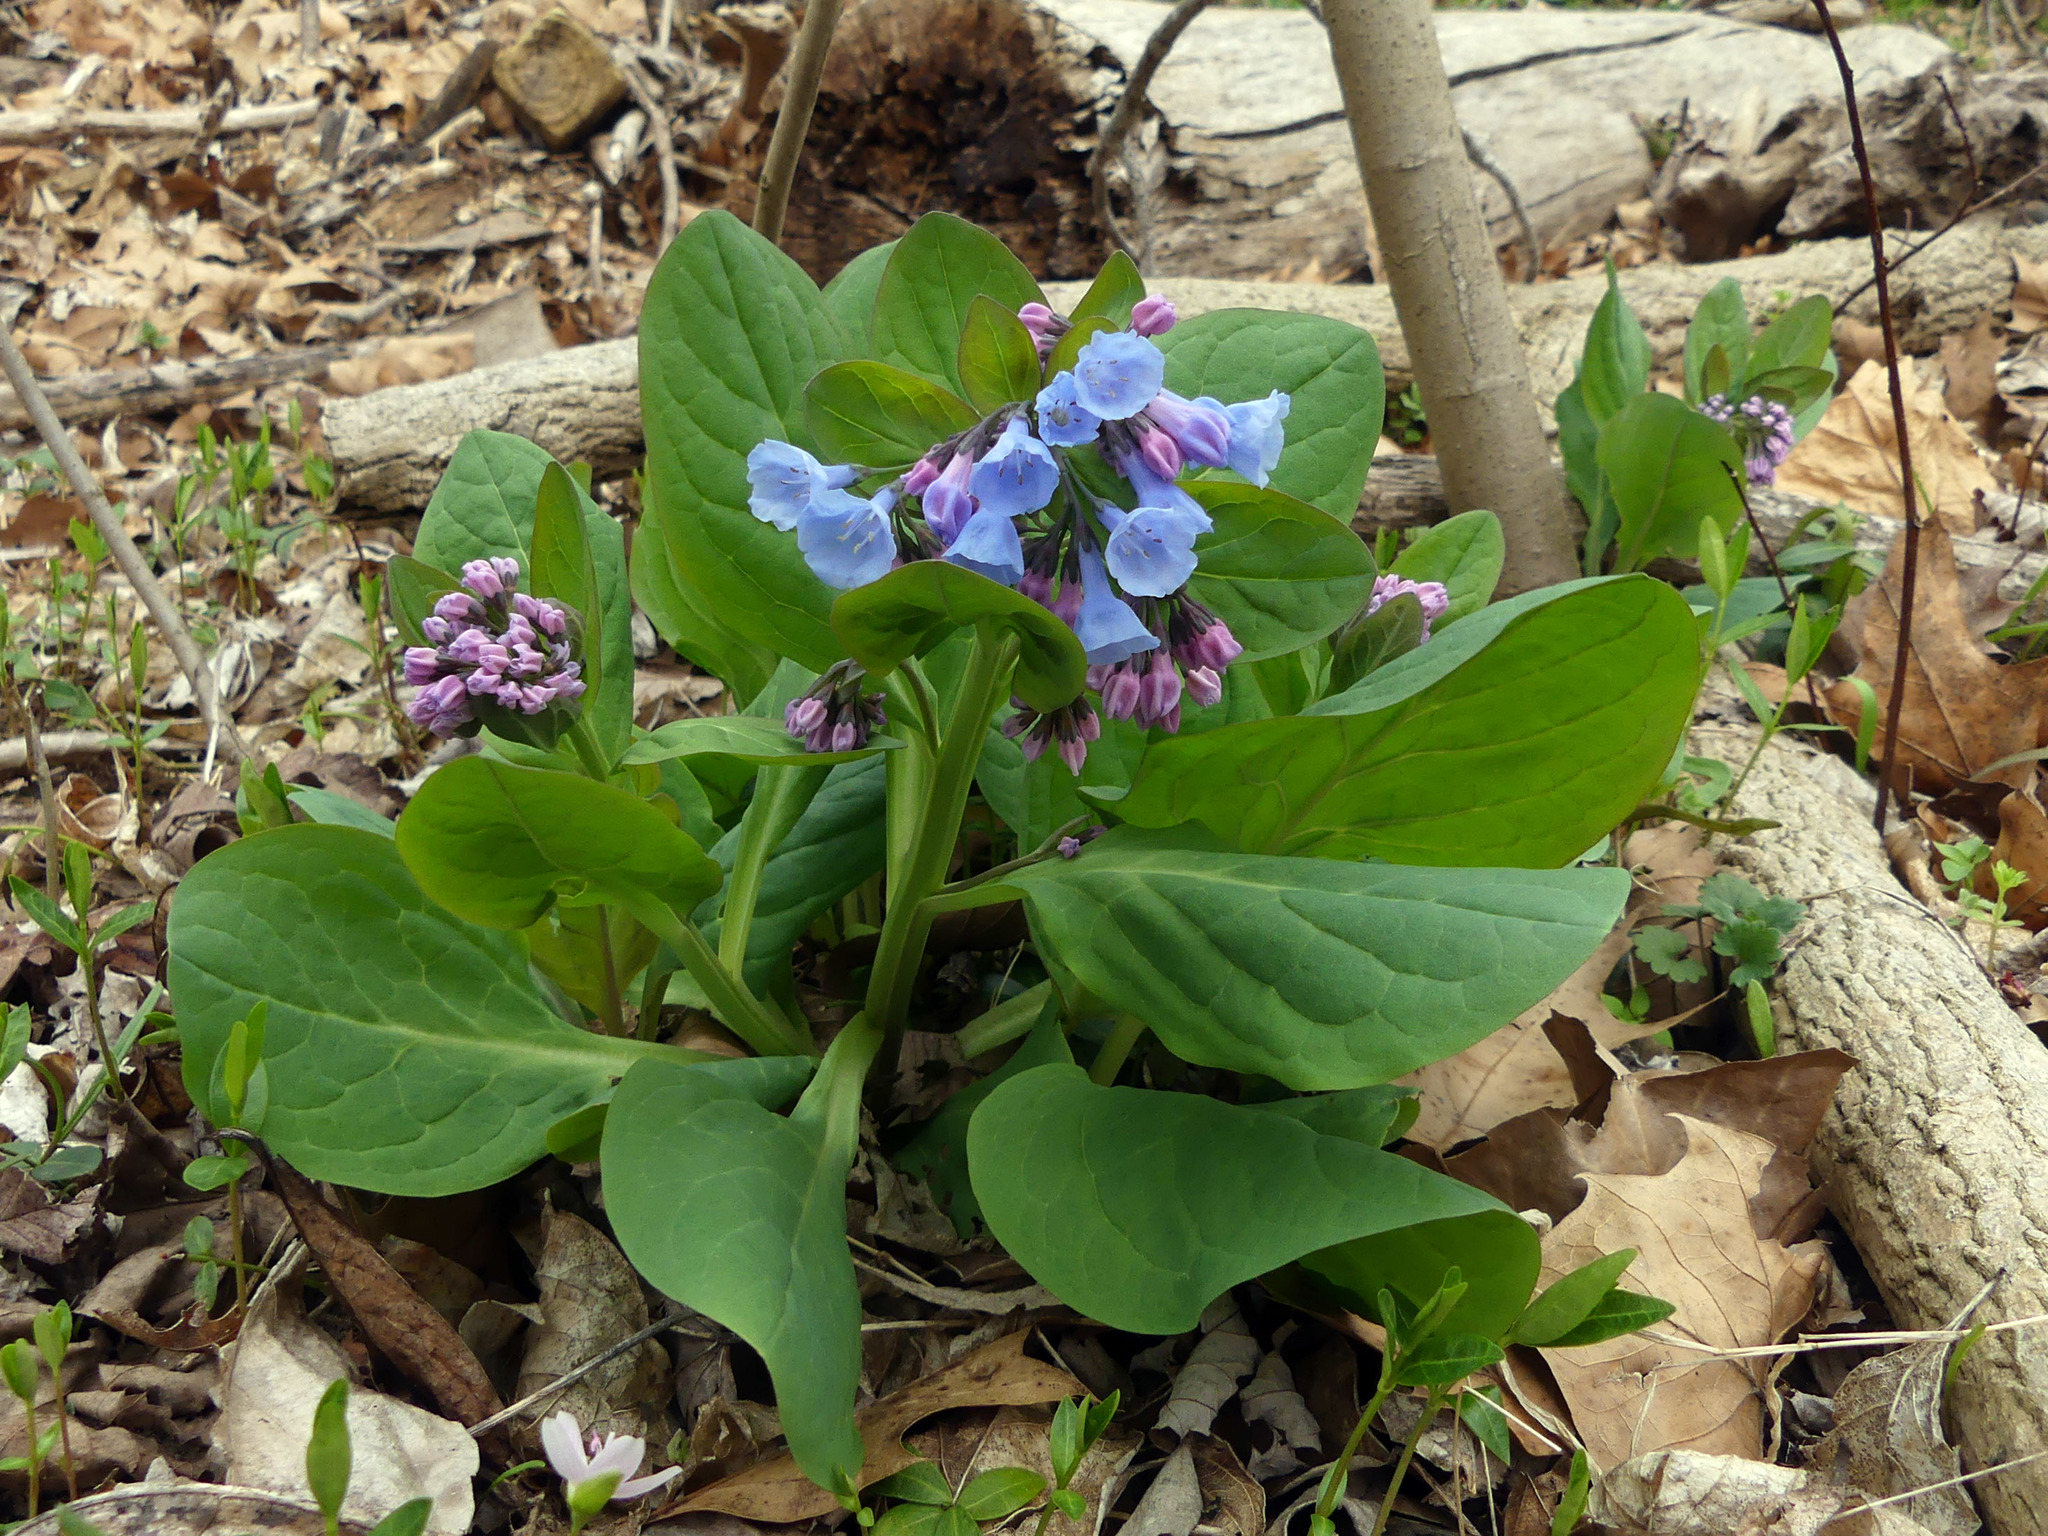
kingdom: Plantae
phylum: Tracheophyta
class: Magnoliopsida
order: Boraginales
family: Boraginaceae
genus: Mertensia
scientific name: Mertensia virginica
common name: Virginia bluebells
